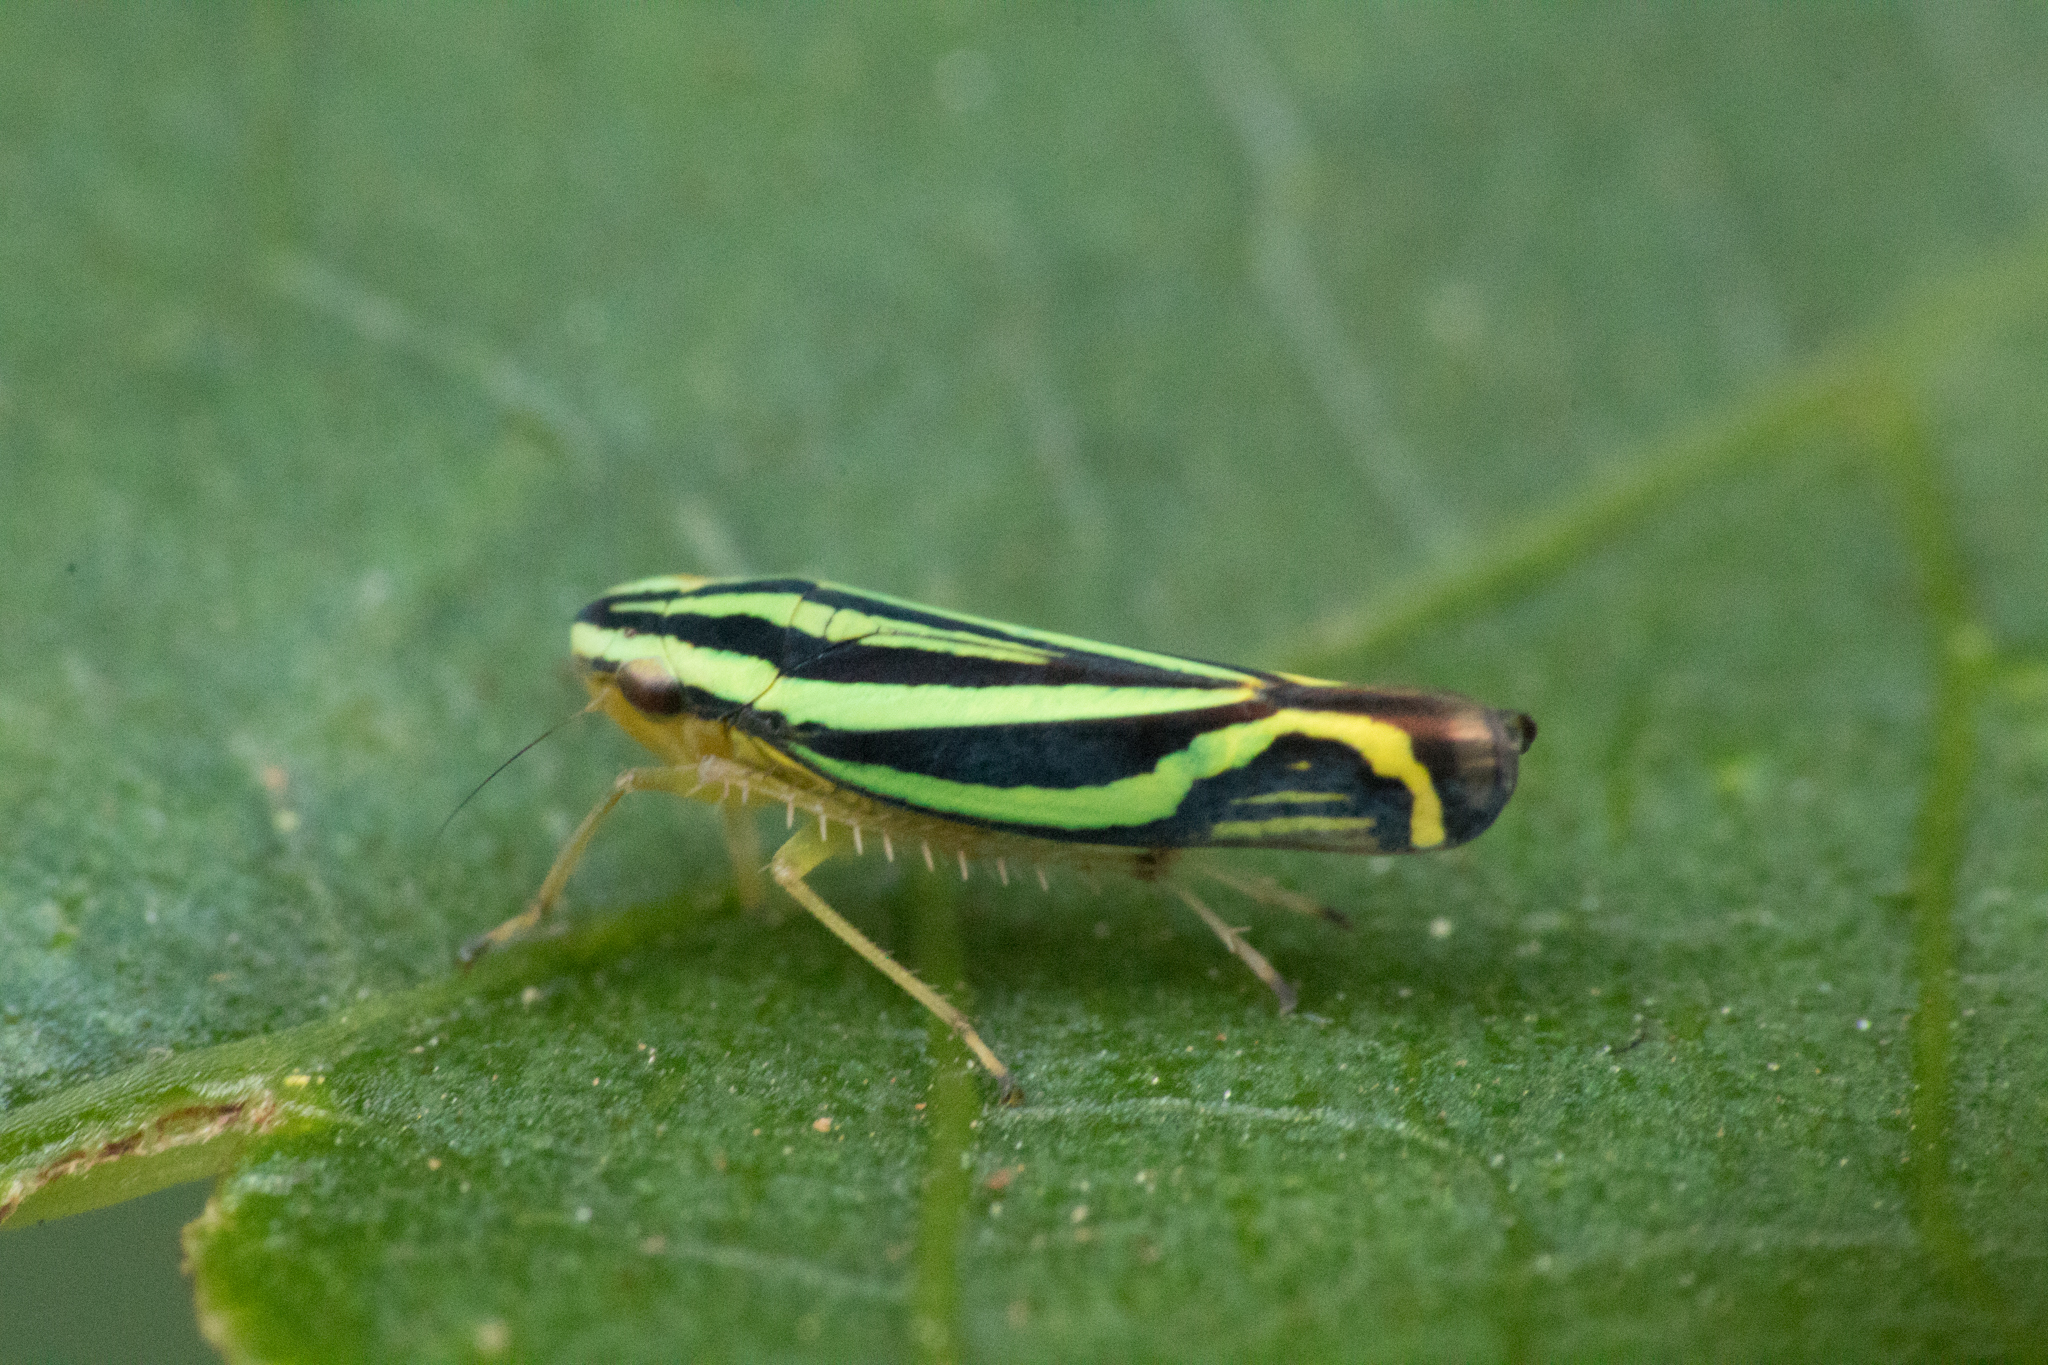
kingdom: Animalia
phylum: Arthropoda
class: Insecta
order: Hemiptera
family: Cicadellidae
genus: Sibovia
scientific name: Sibovia sagata
